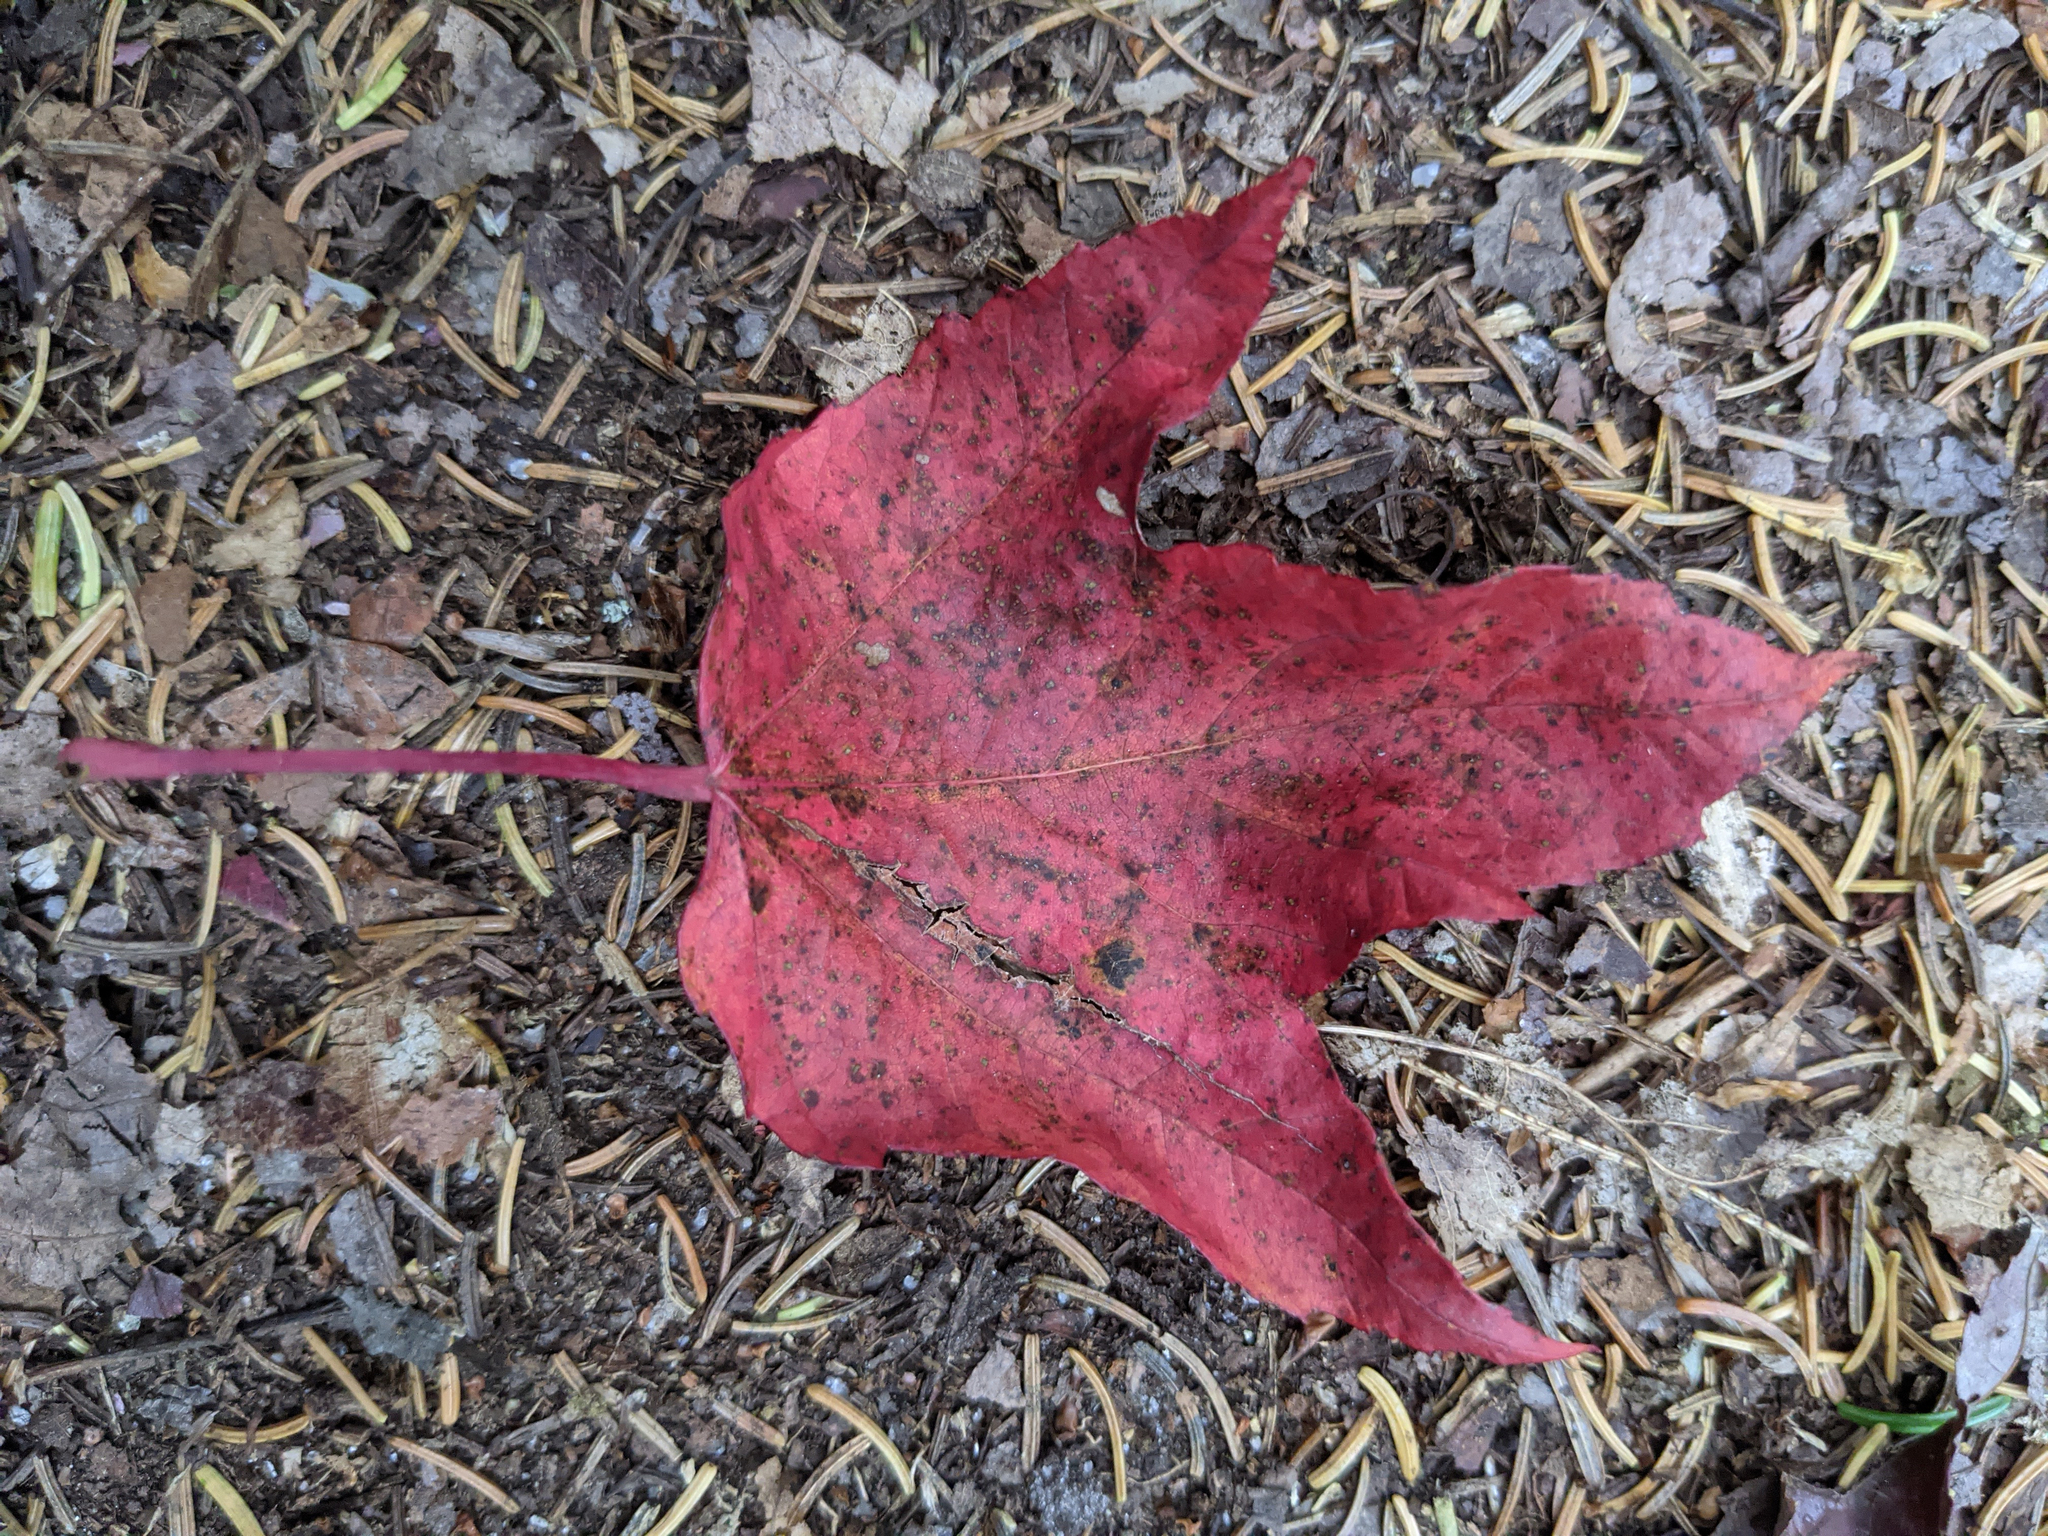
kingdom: Plantae
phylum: Tracheophyta
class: Magnoliopsida
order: Sapindales
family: Sapindaceae
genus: Acer
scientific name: Acer rubrum
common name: Red maple
